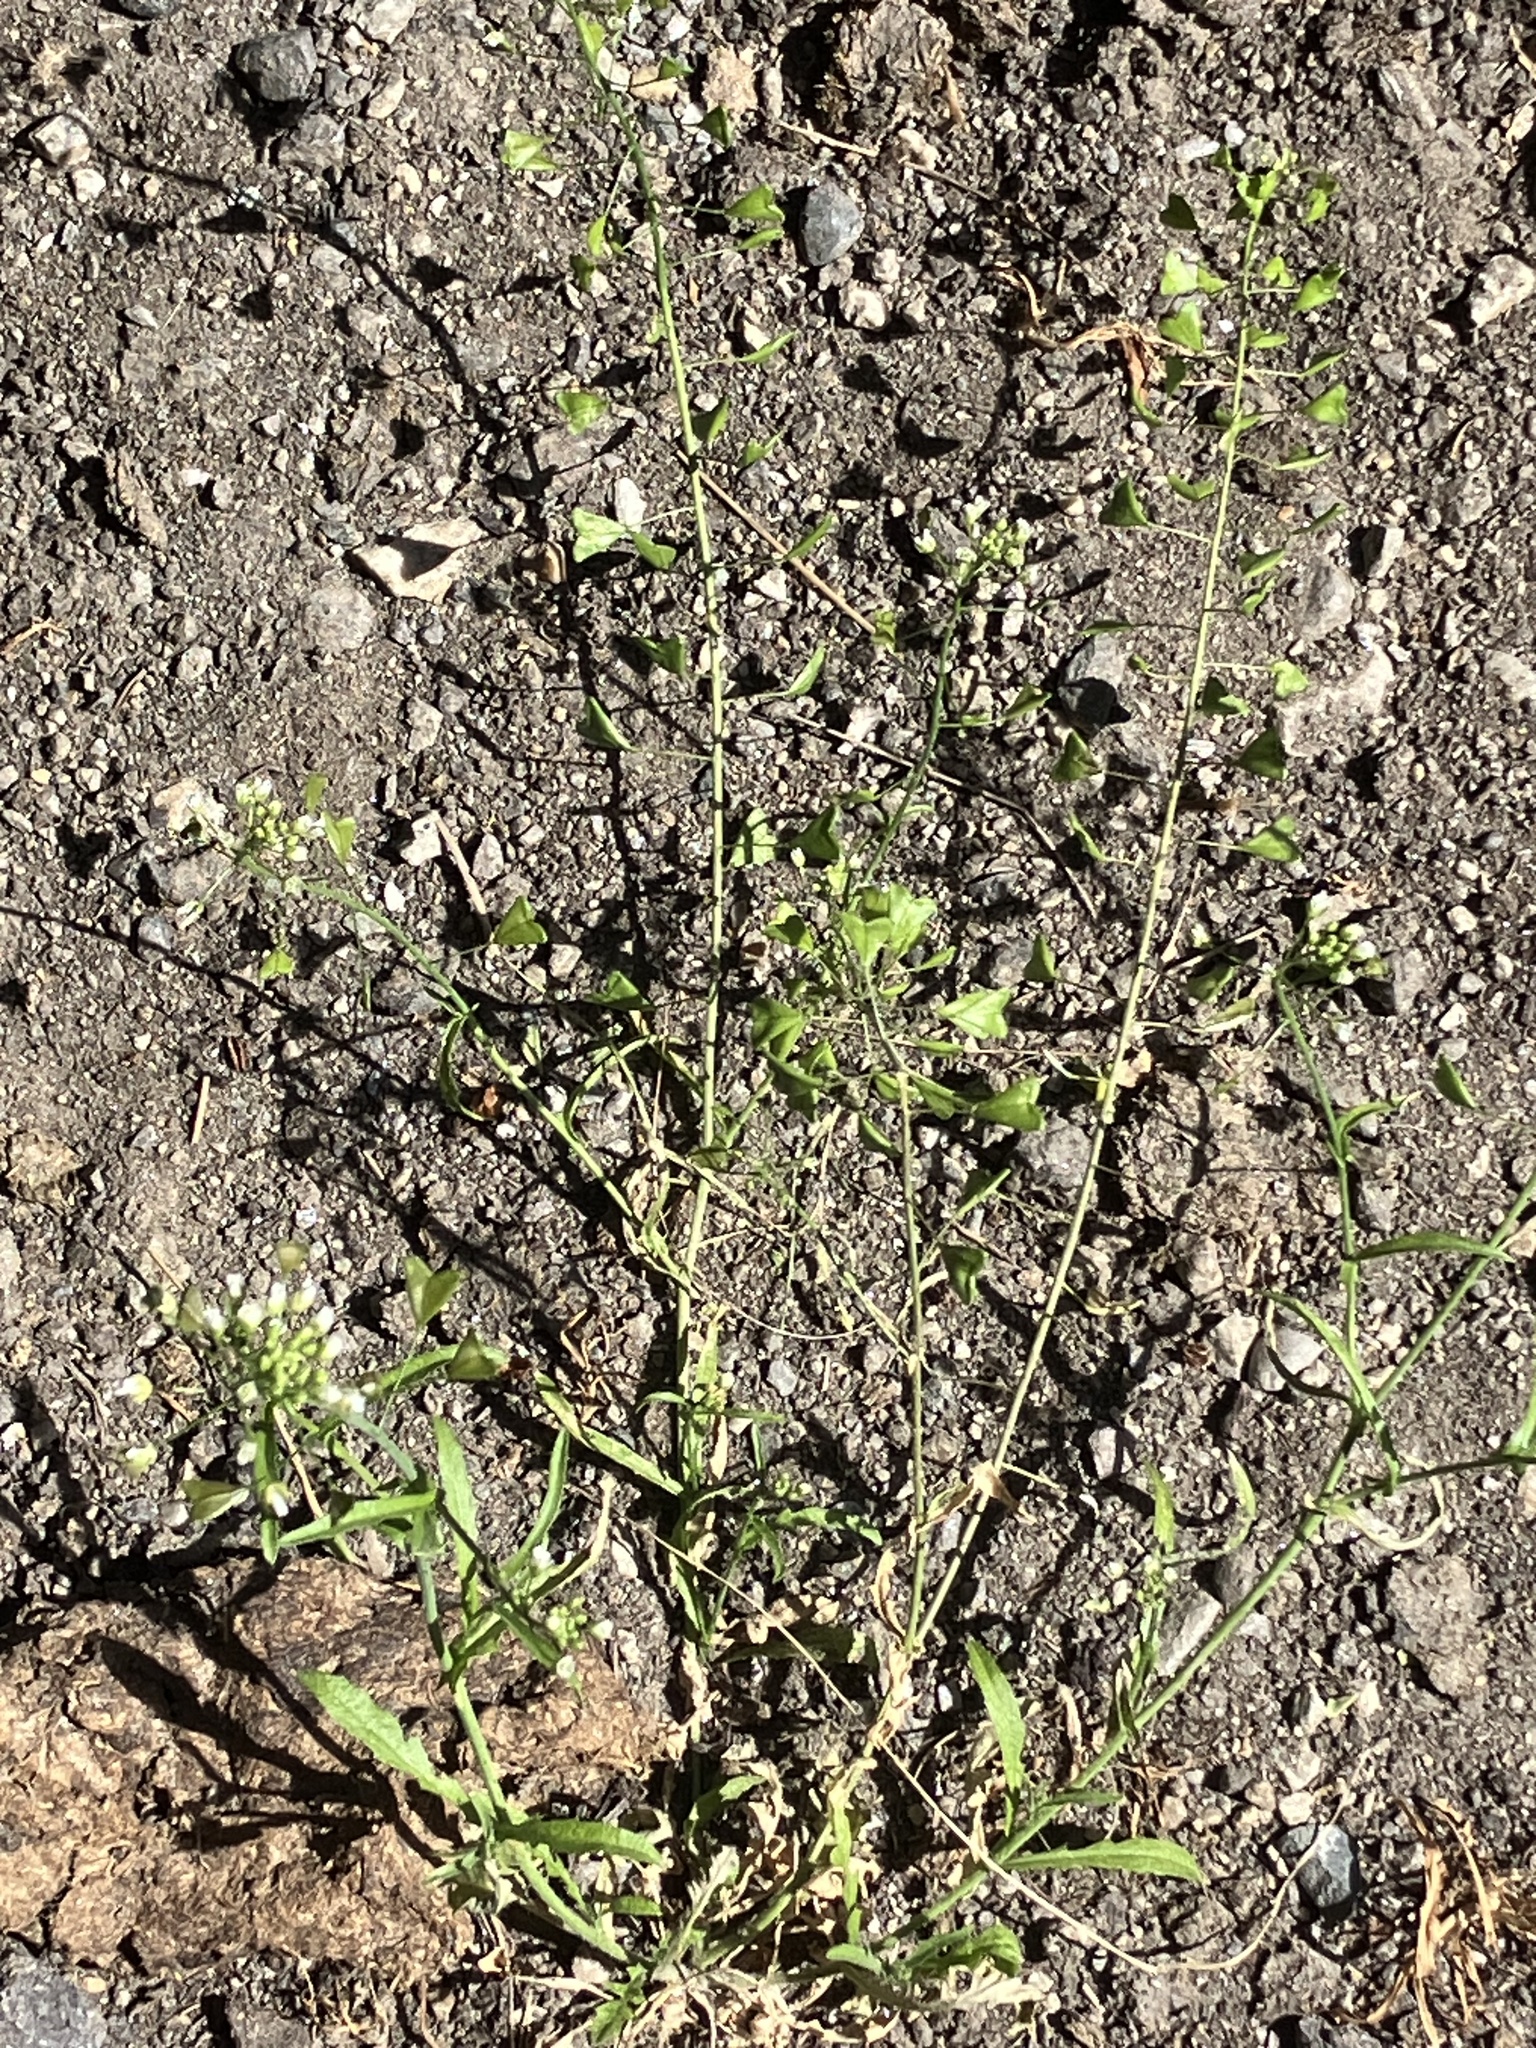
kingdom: Plantae
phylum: Tracheophyta
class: Magnoliopsida
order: Brassicales
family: Brassicaceae
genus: Capsella
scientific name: Capsella bursa-pastoris
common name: Shepherd's purse
